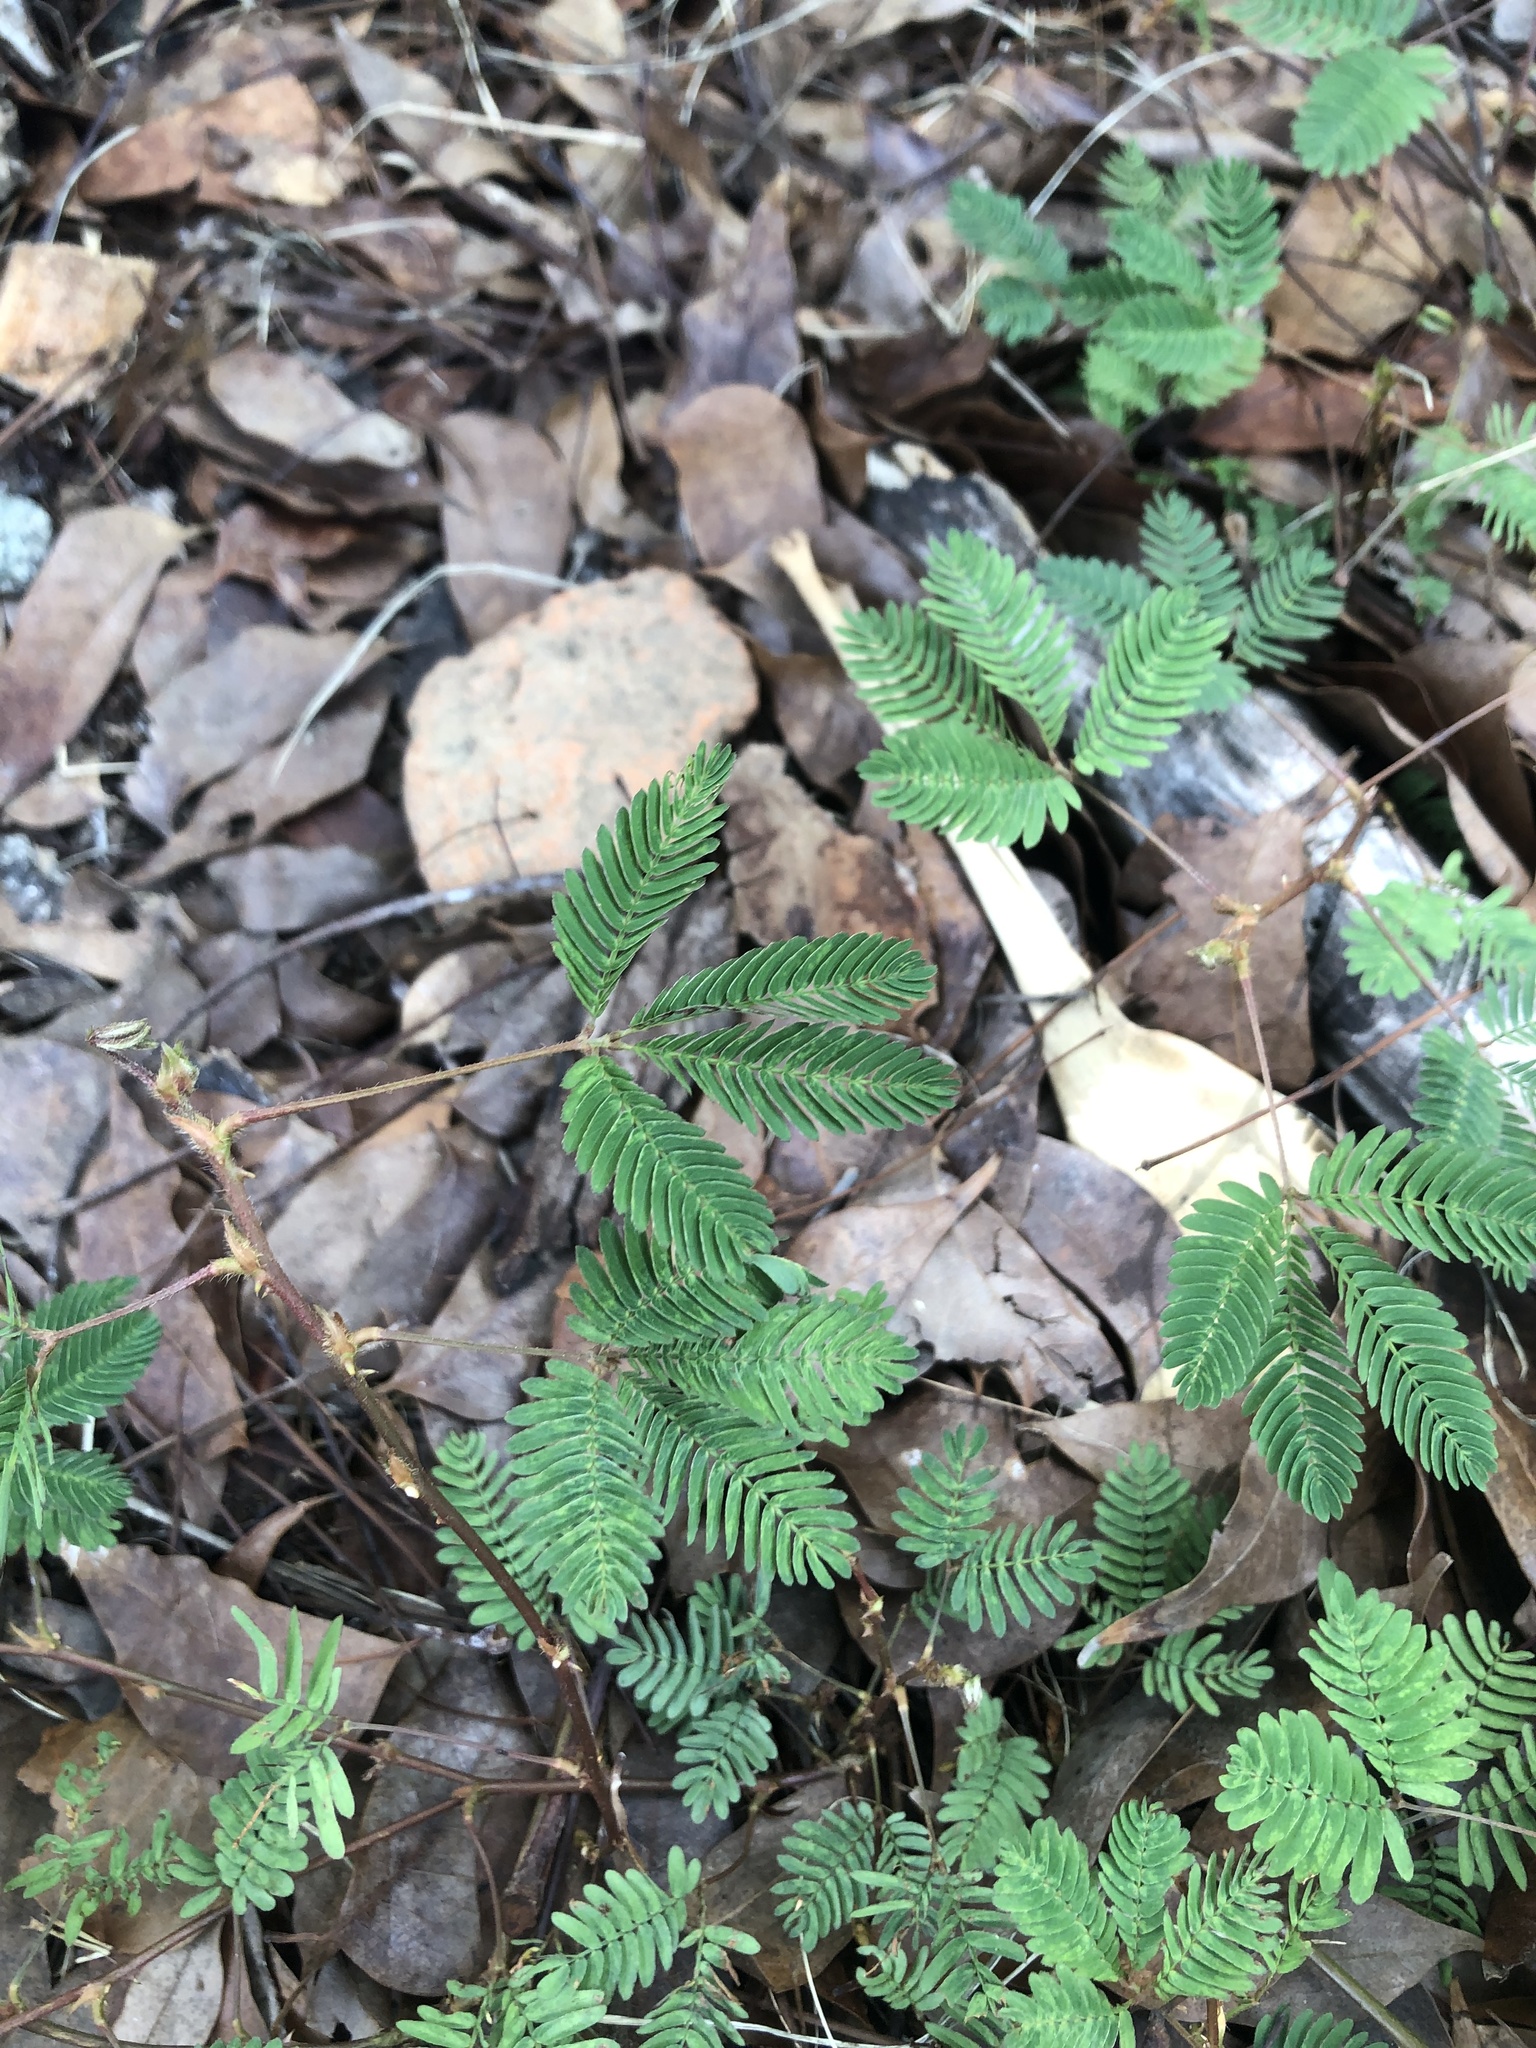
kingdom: Plantae
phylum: Tracheophyta
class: Magnoliopsida
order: Fabales
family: Fabaceae
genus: Mimosa
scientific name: Mimosa pudica
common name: Sensitive plant
